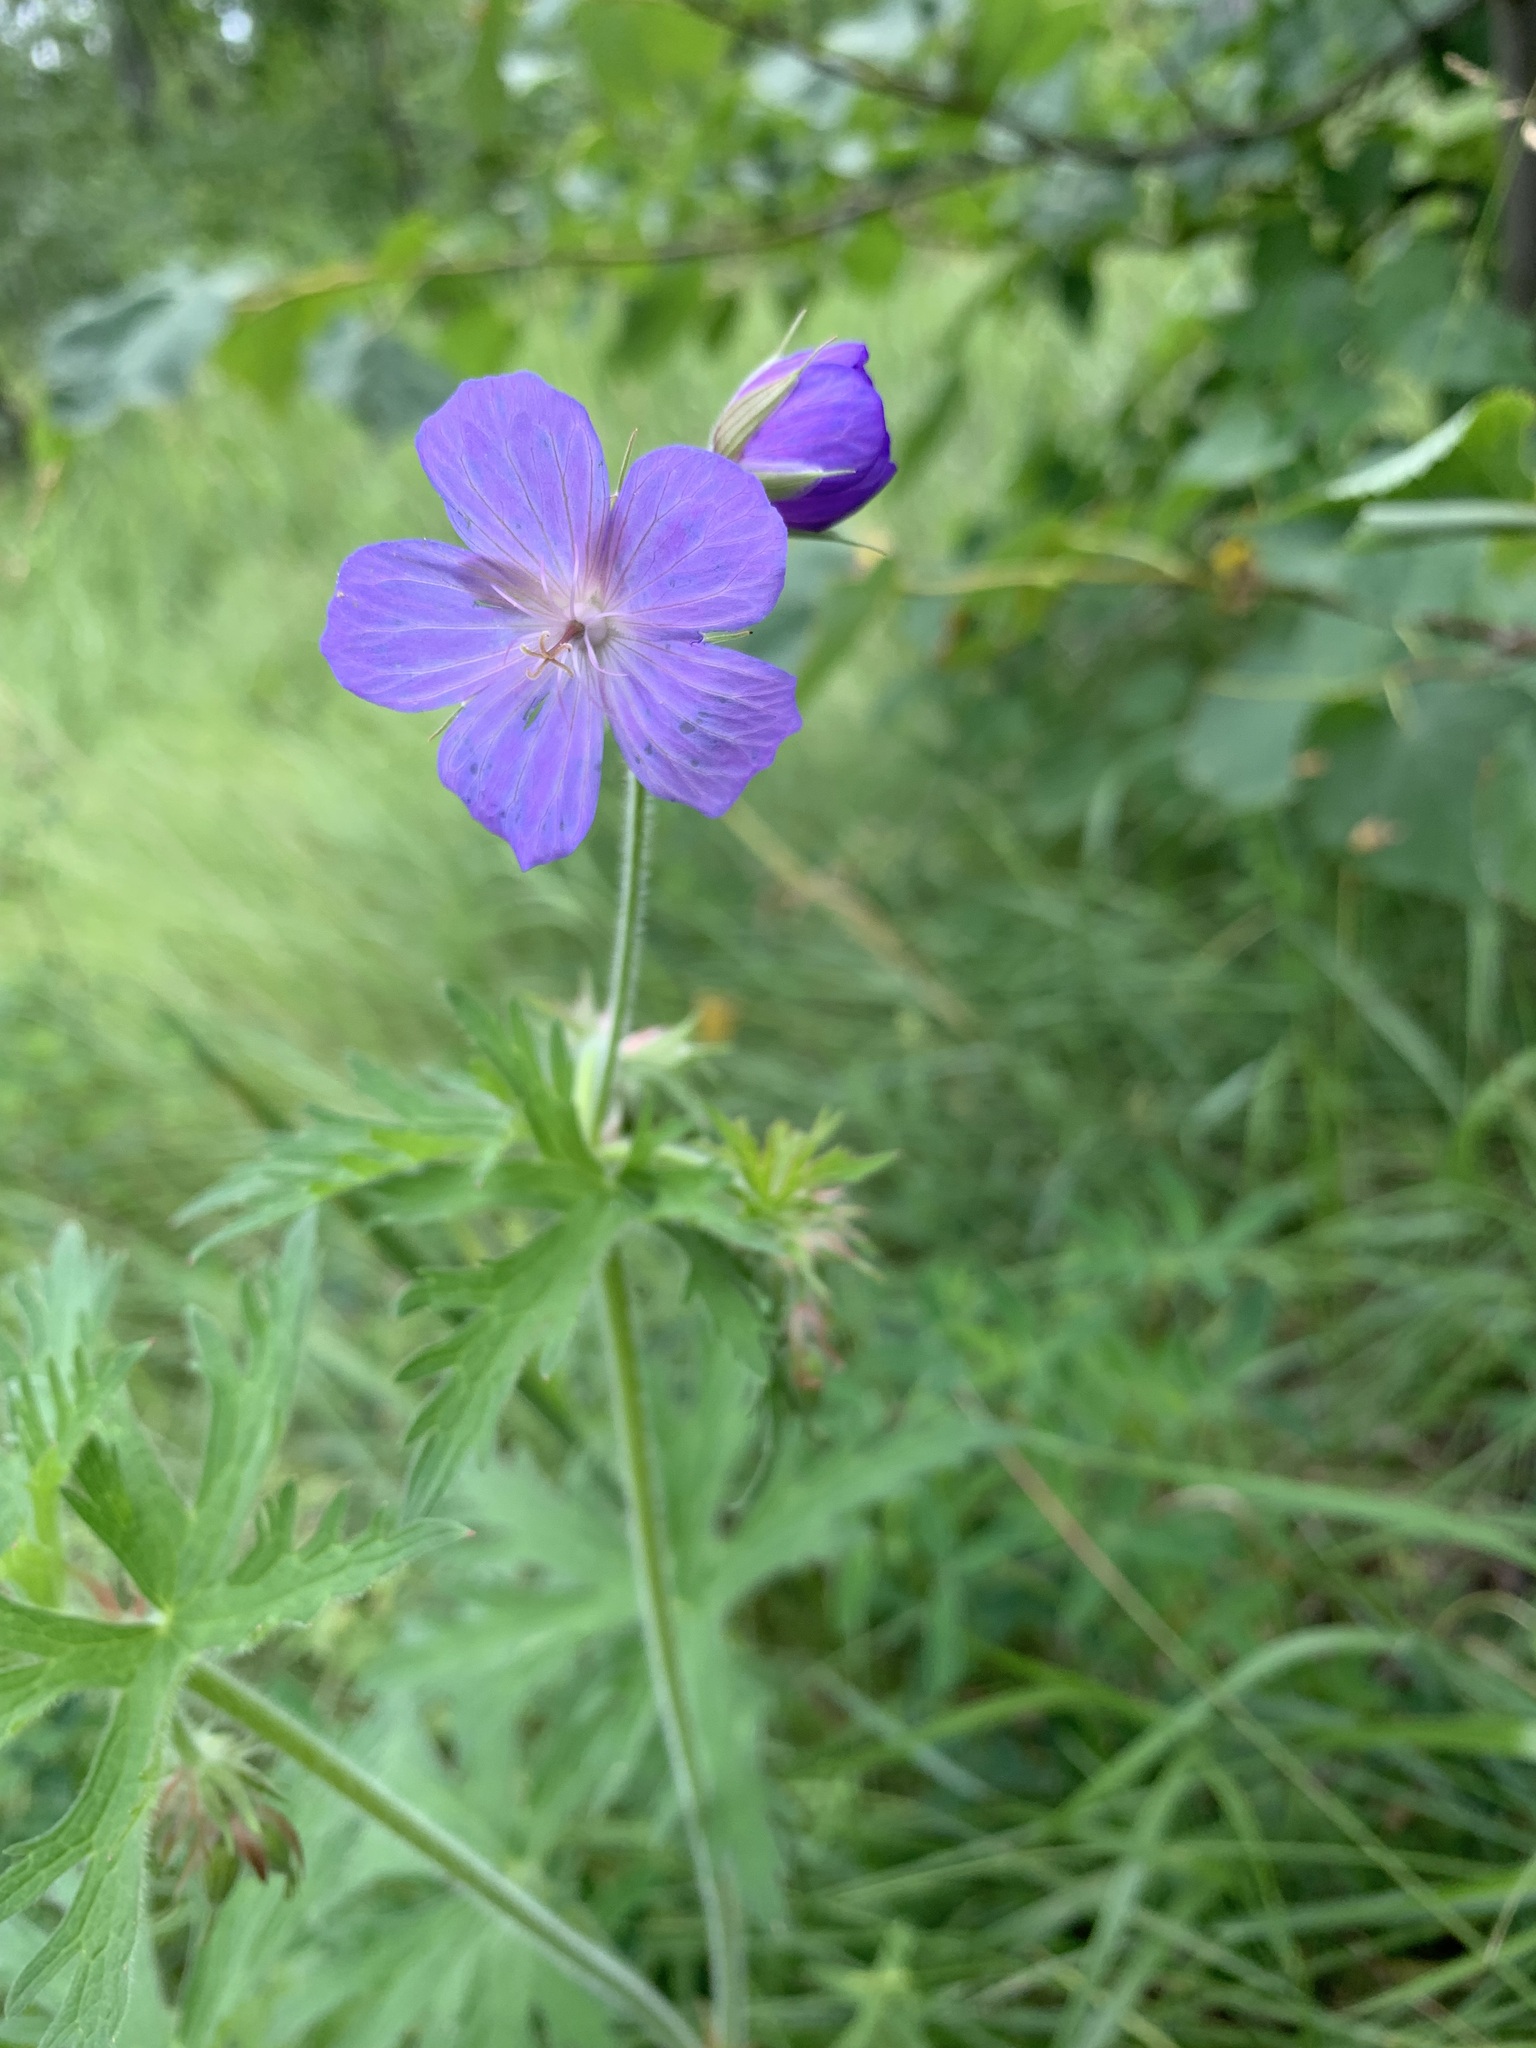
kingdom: Plantae
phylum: Tracheophyta
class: Magnoliopsida
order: Geraniales
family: Geraniaceae
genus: Geranium
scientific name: Geranium pratense
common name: Meadow crane's-bill
